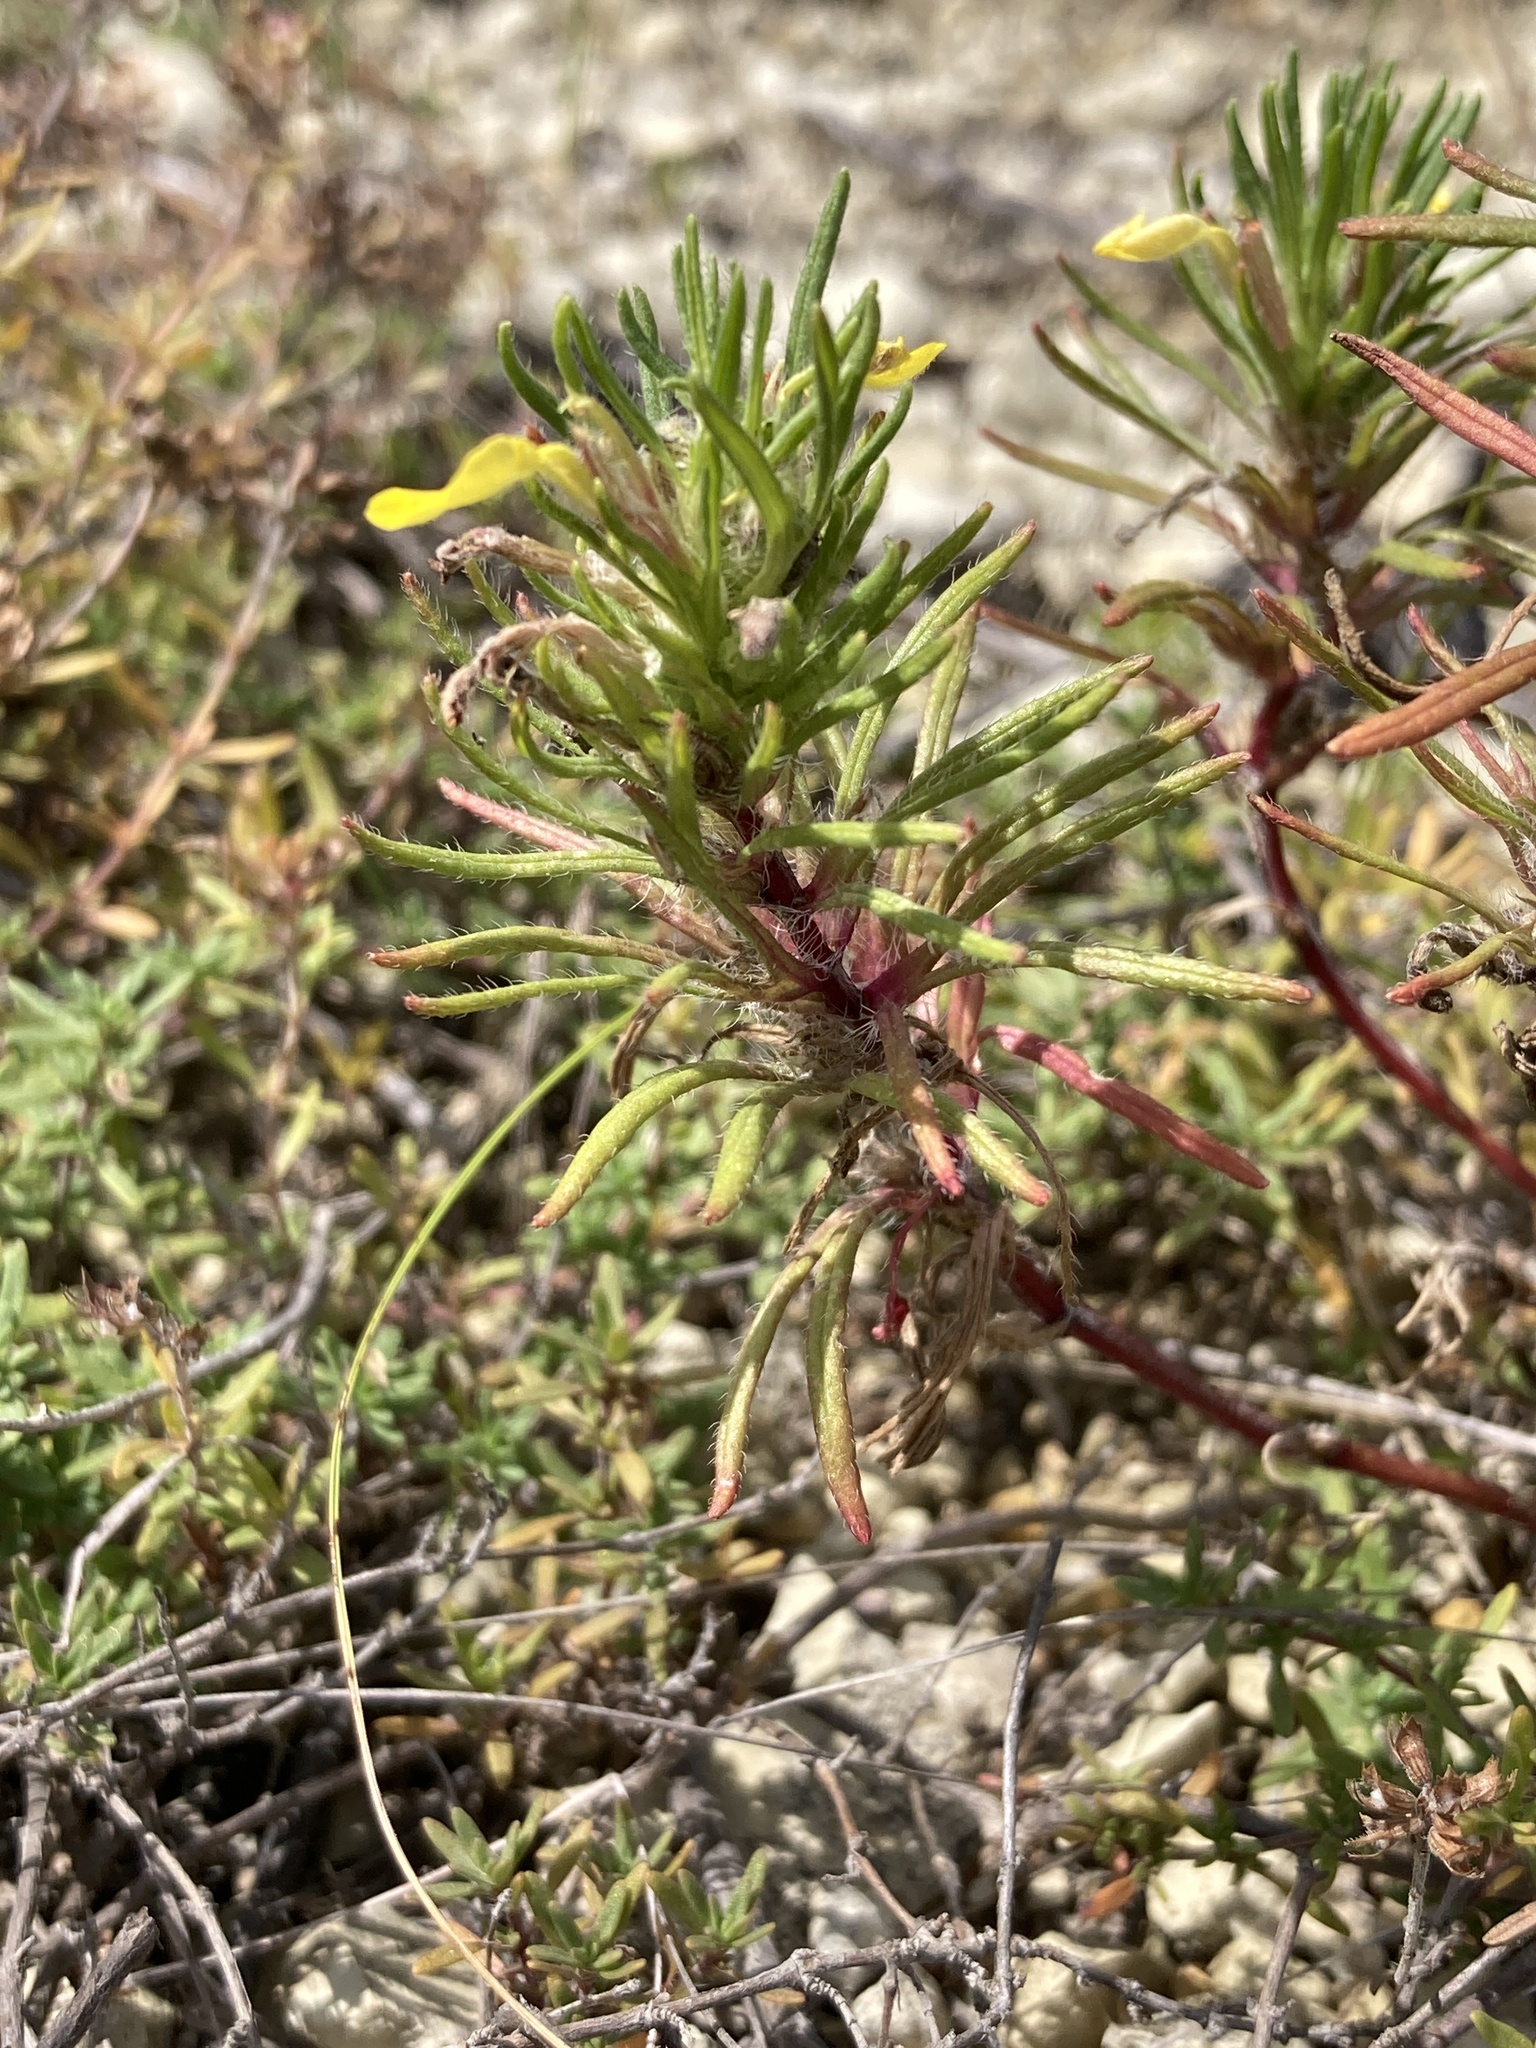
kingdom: Plantae
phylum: Tracheophyta
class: Magnoliopsida
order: Lamiales
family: Lamiaceae
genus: Ajuga
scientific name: Ajuga chamaepitys
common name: Ground-pine
